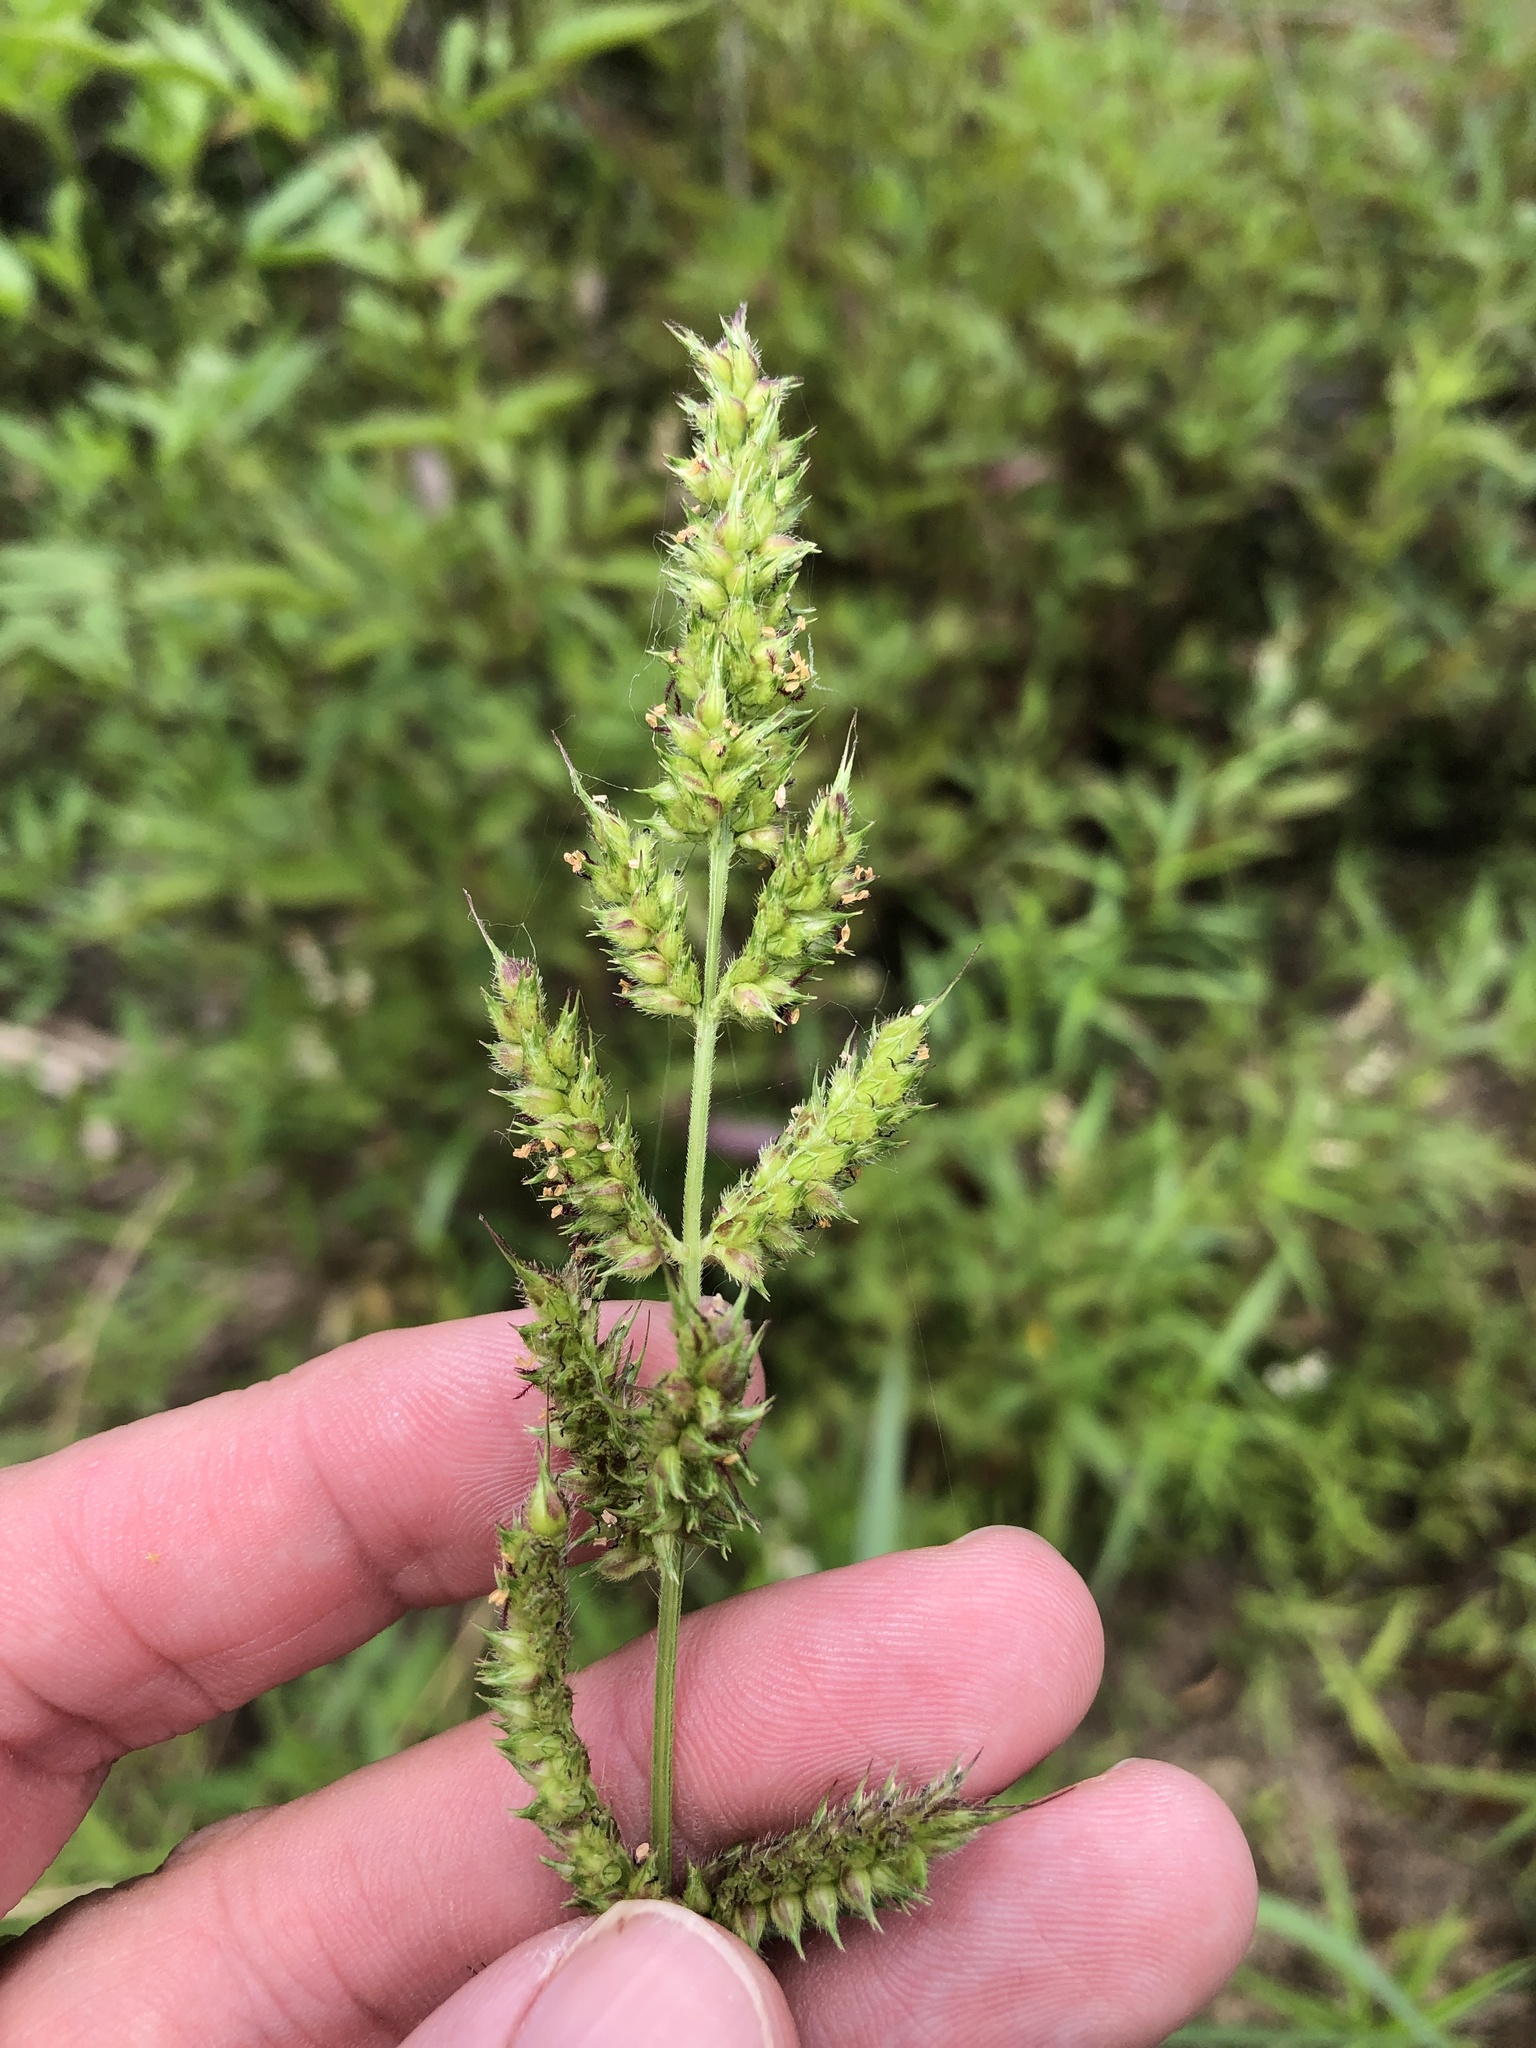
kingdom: Plantae
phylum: Tracheophyta
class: Liliopsida
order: Poales
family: Poaceae
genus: Echinochloa
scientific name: Echinochloa crus-galli
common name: Cockspur
